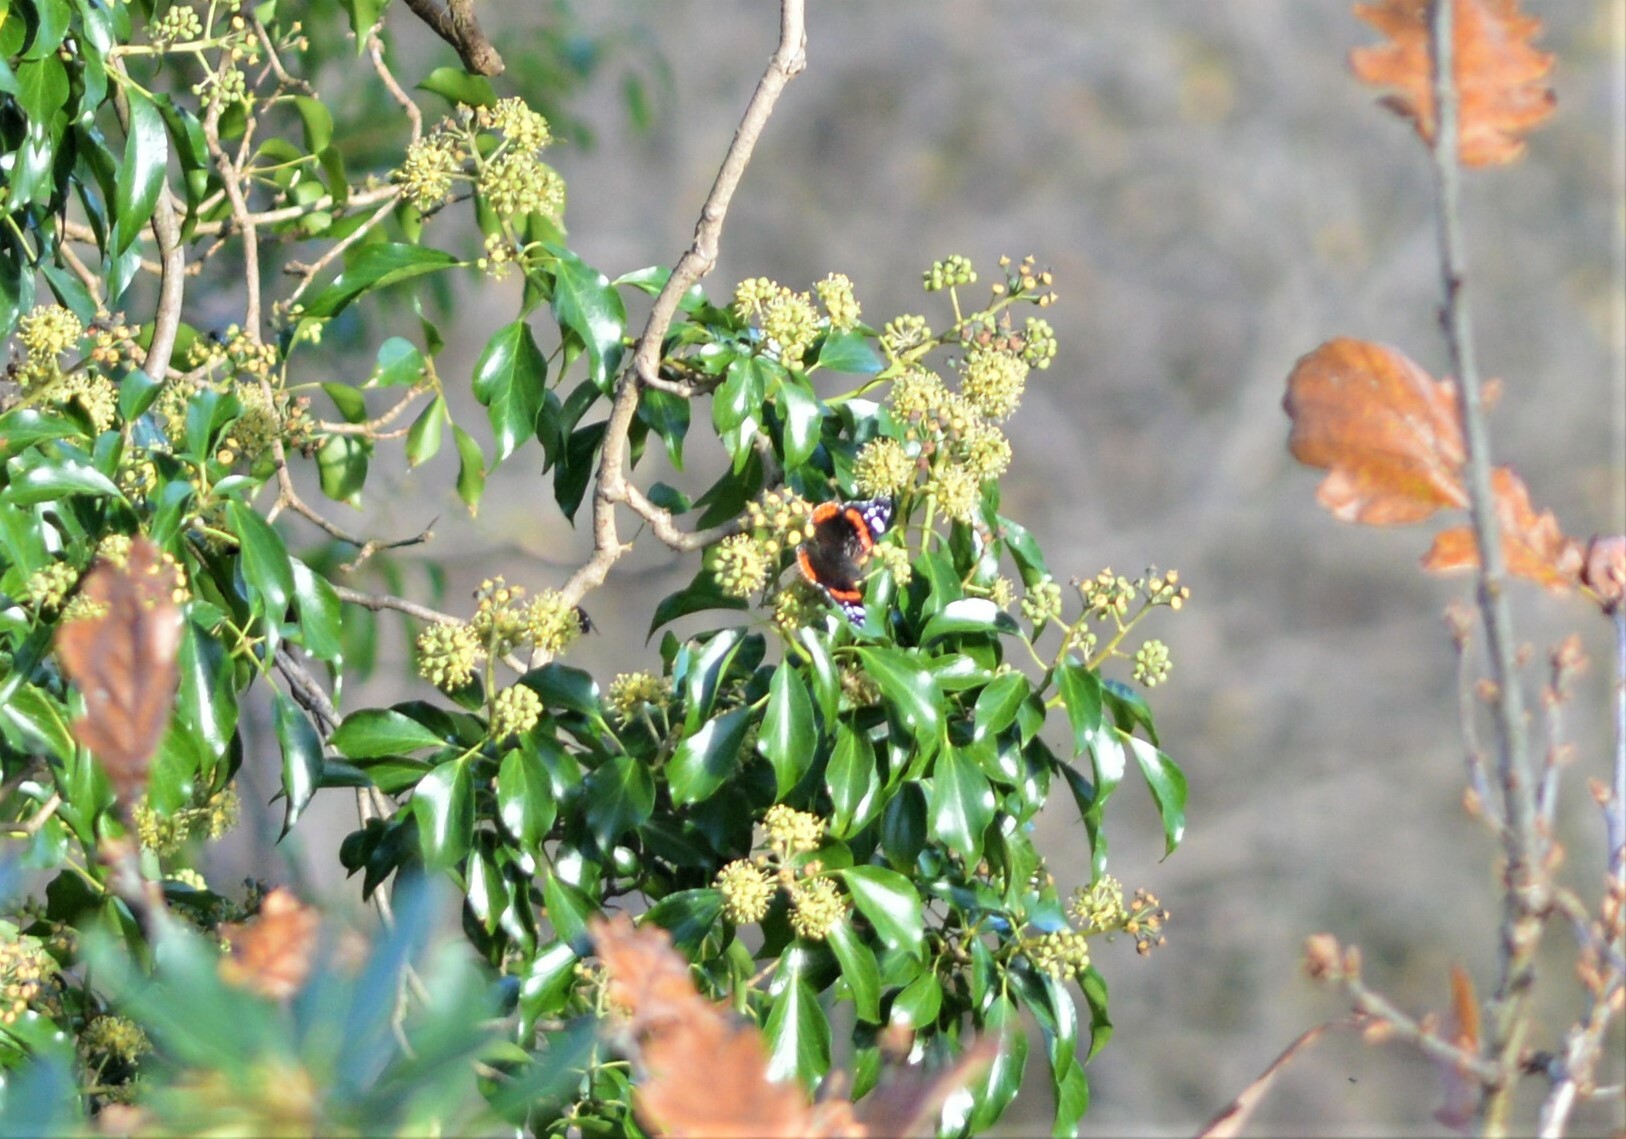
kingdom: Animalia
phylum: Arthropoda
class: Insecta
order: Lepidoptera
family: Nymphalidae
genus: Vanessa
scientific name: Vanessa atalanta
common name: Red admiral
